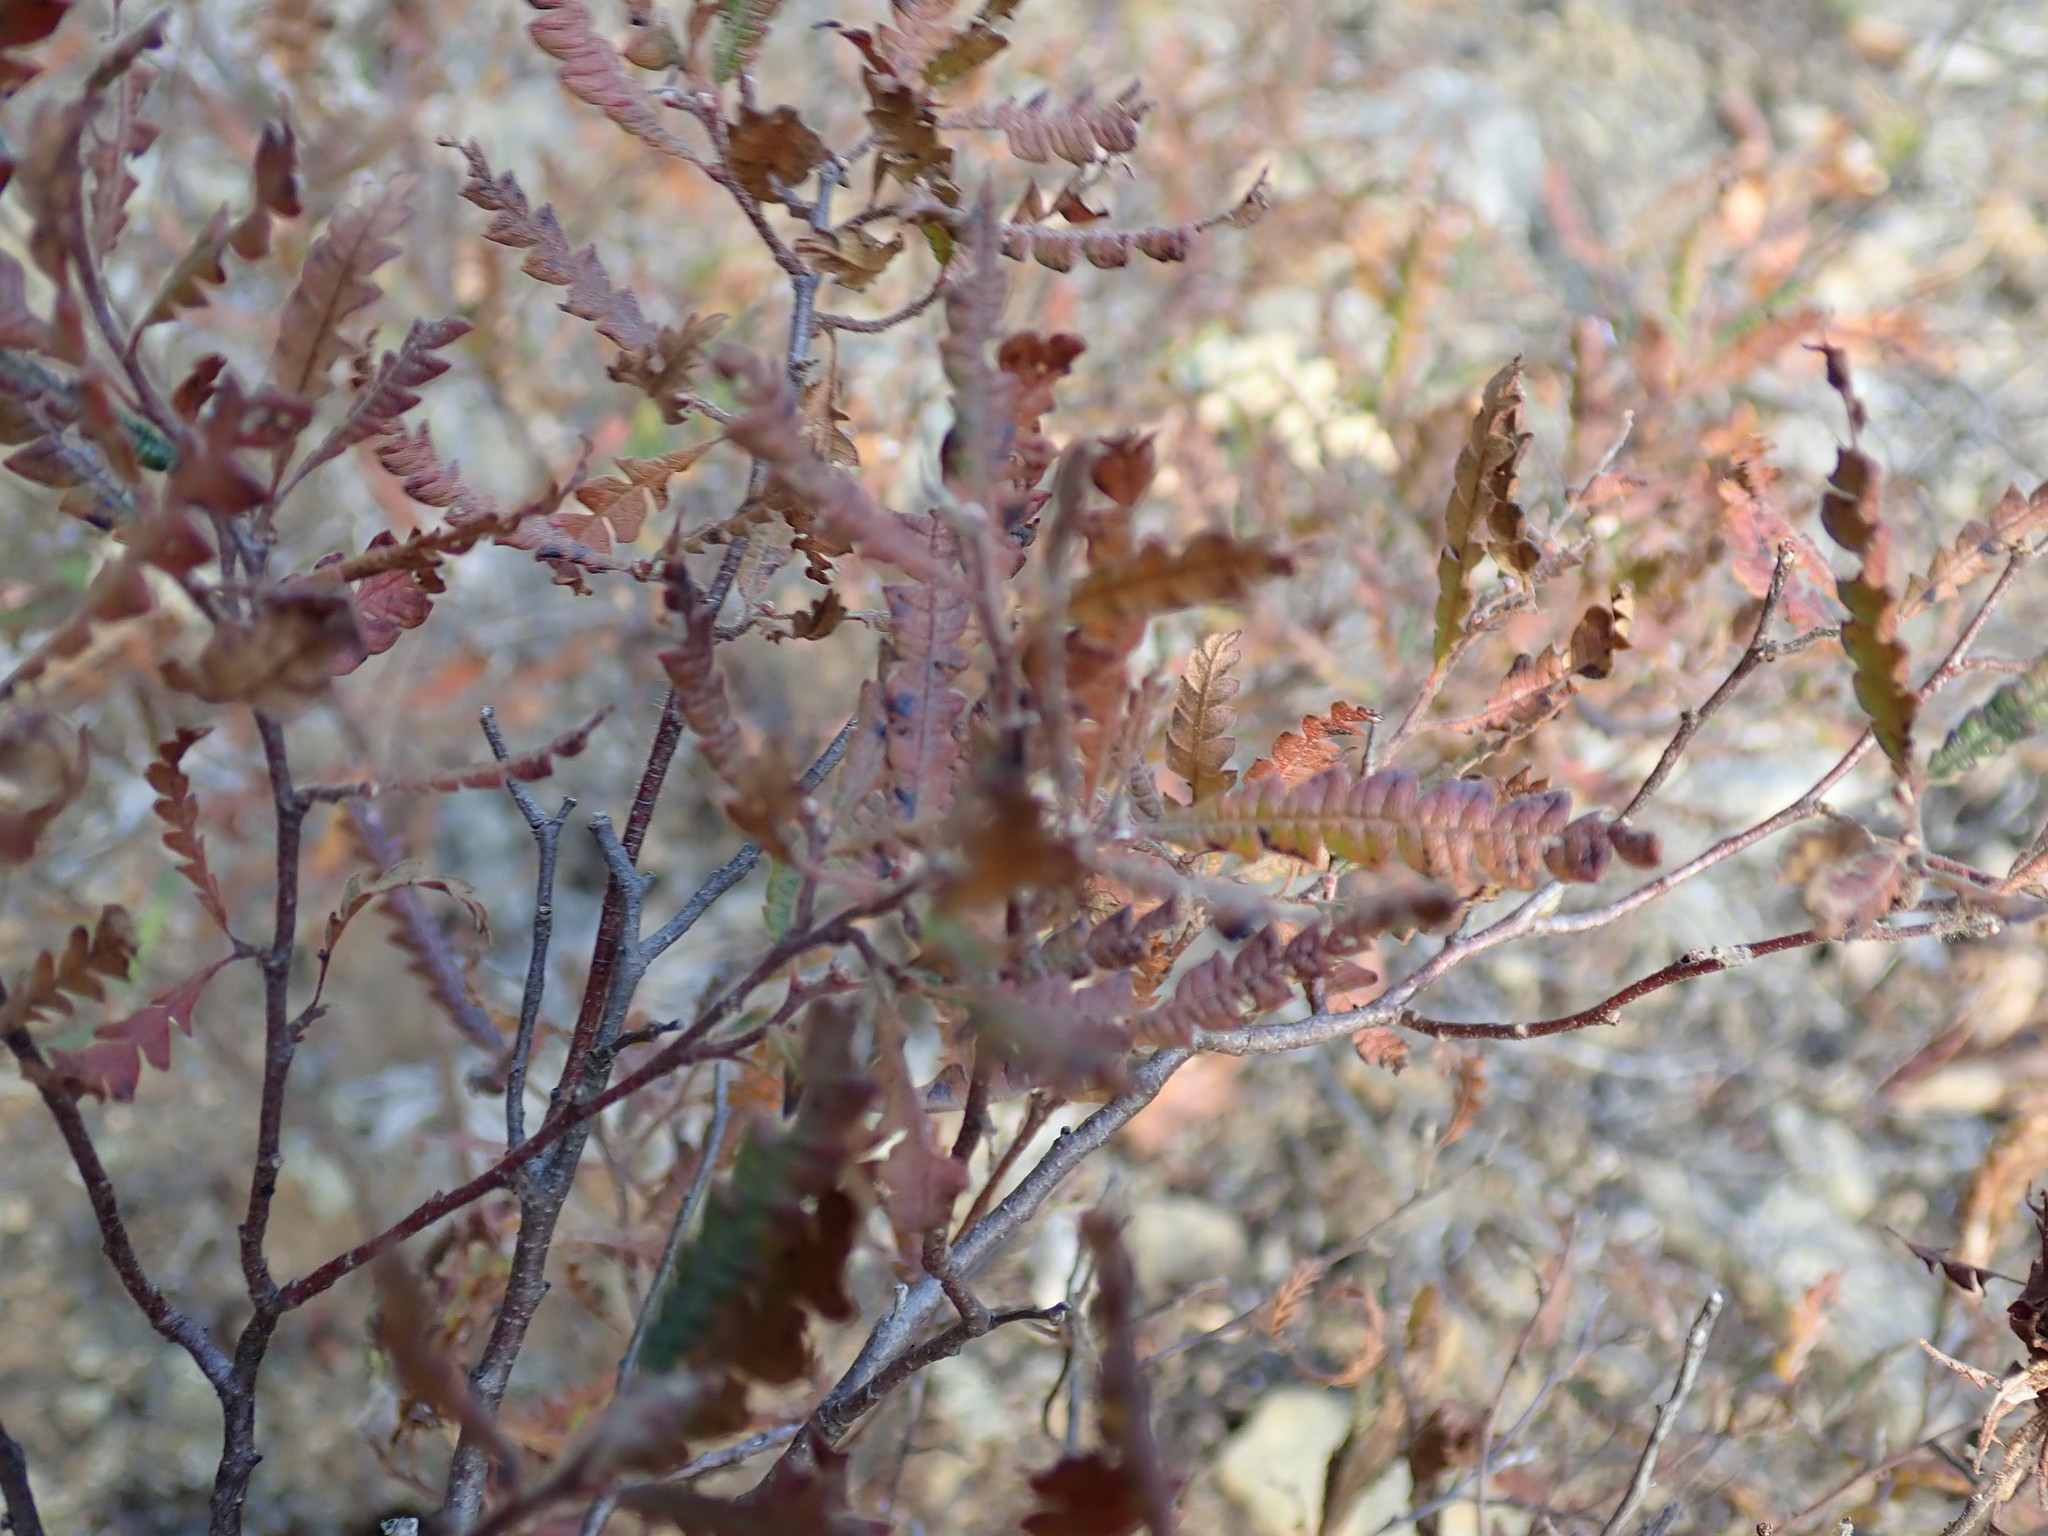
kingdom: Plantae
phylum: Tracheophyta
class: Magnoliopsida
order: Fagales
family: Myricaceae
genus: Comptonia
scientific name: Comptonia peregrina
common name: Sweet-fern
